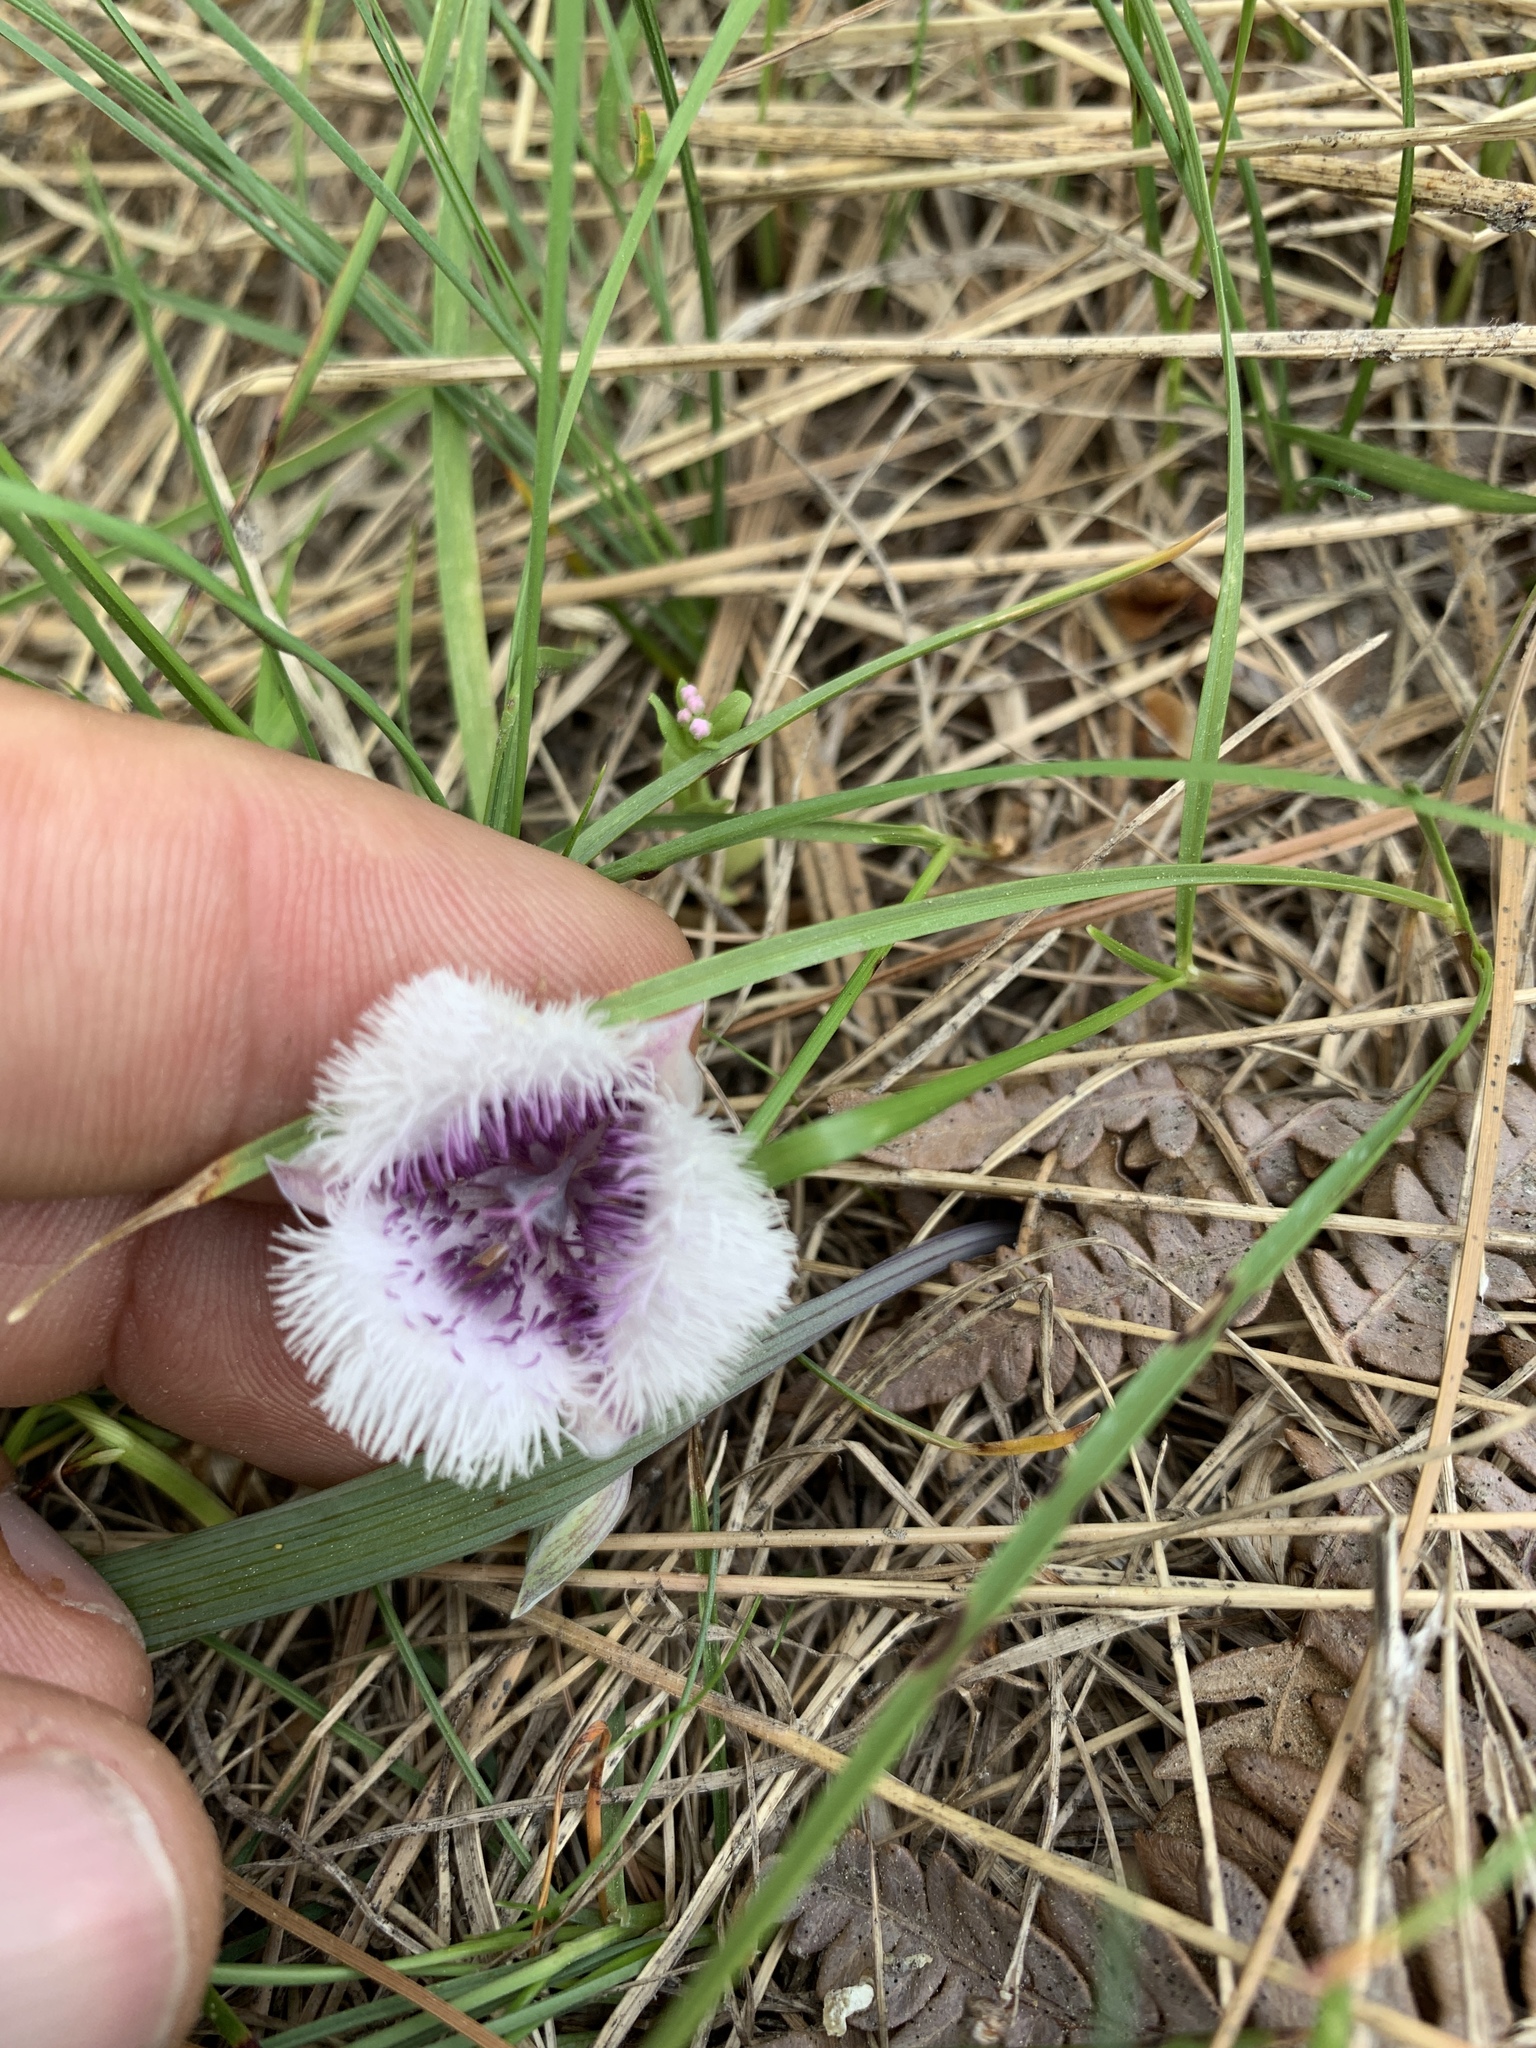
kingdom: Plantae
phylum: Tracheophyta
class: Liliopsida
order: Liliales
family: Liliaceae
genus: Calochortus
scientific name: Calochortus coeruleus
